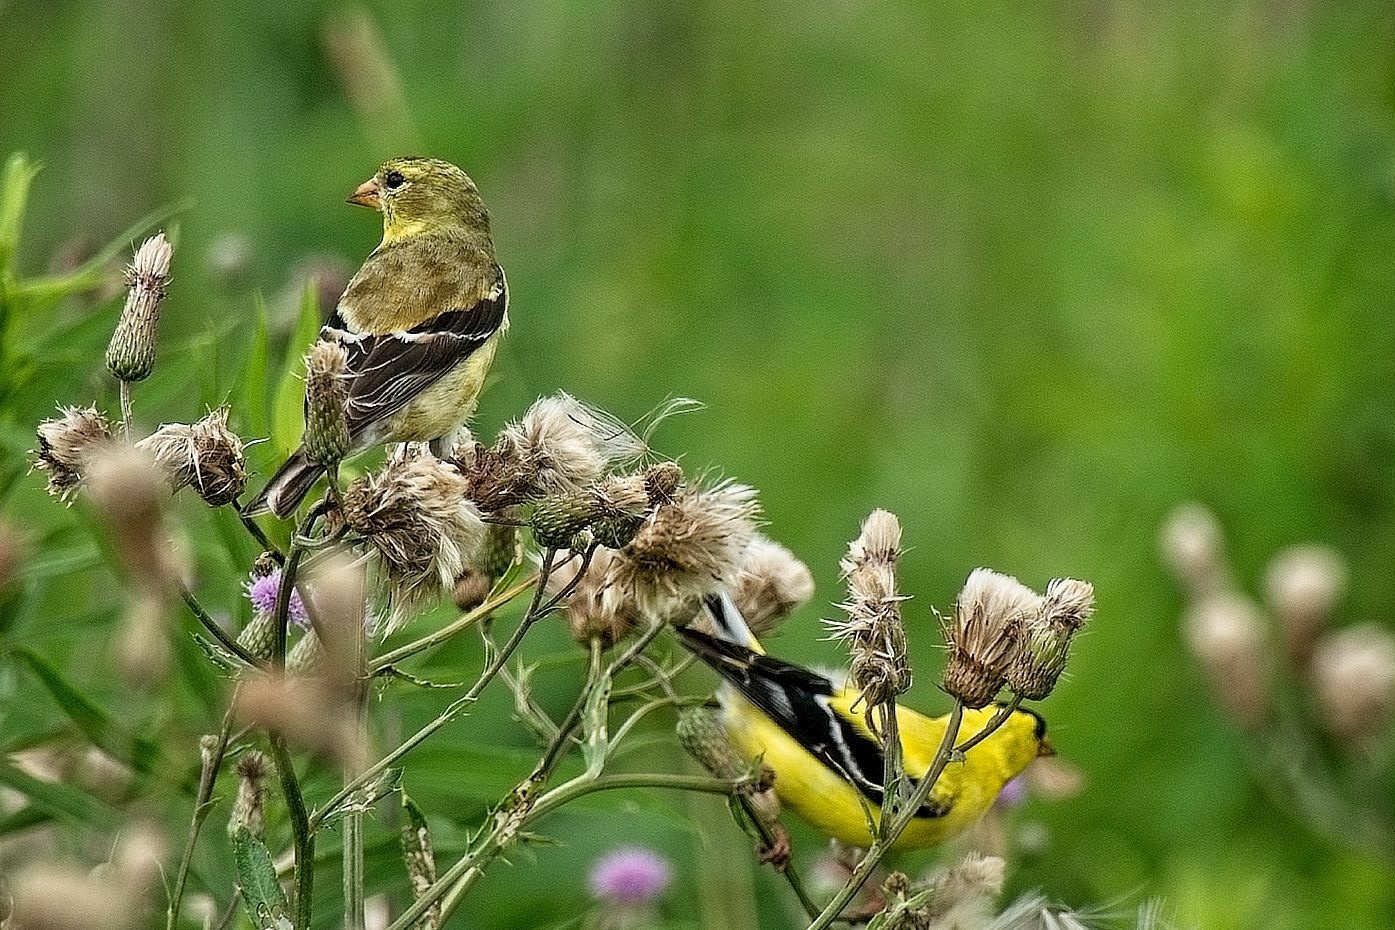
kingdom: Animalia
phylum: Chordata
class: Aves
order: Passeriformes
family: Fringillidae
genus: Spinus
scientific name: Spinus tristis
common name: American goldfinch
